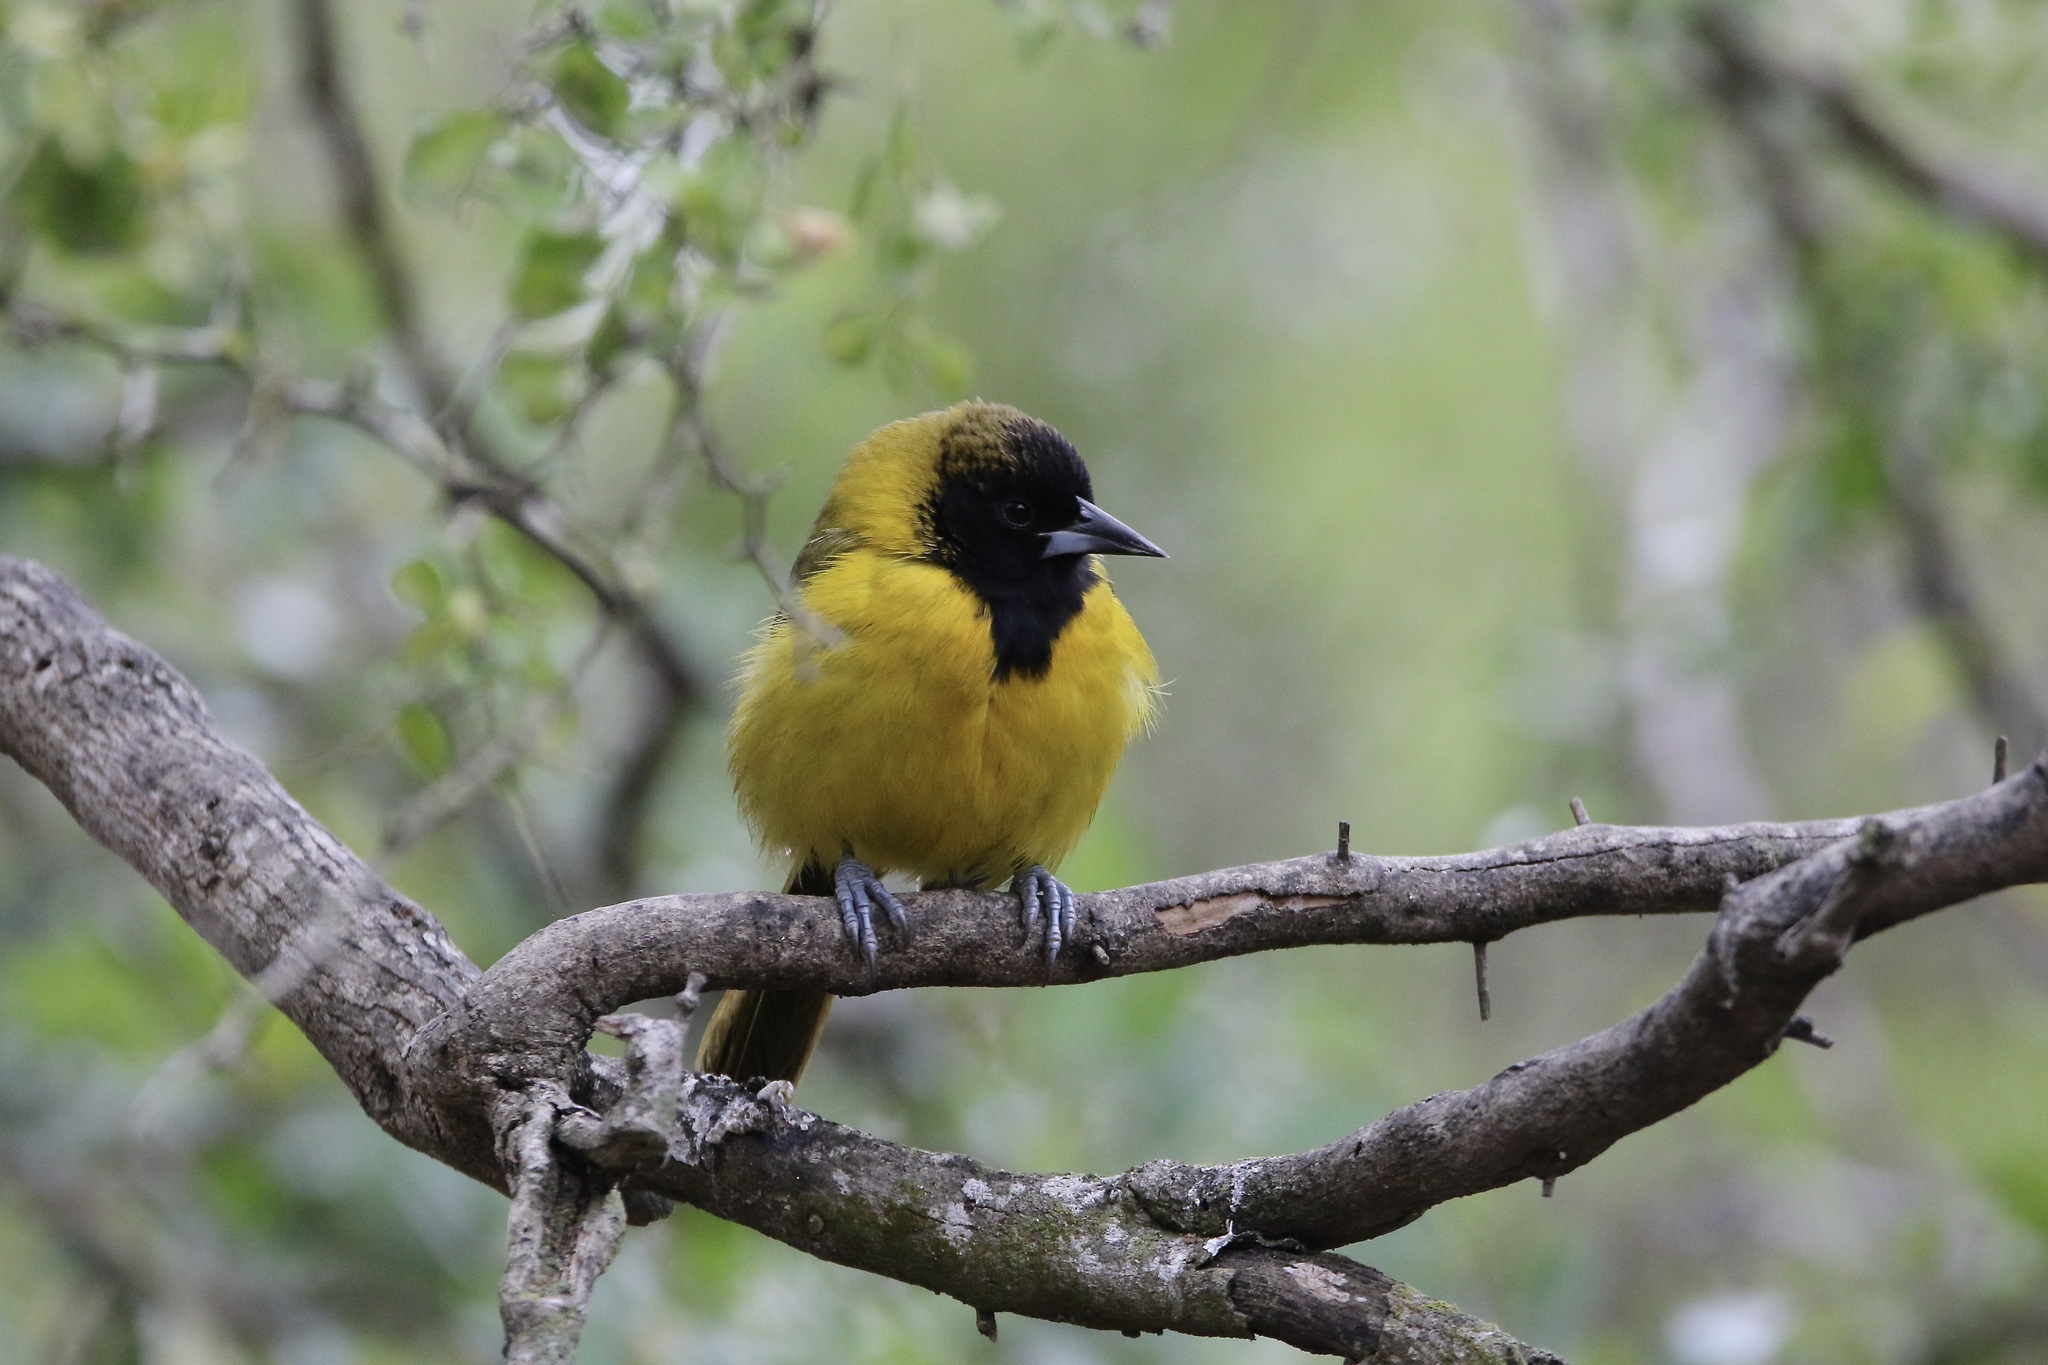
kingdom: Animalia
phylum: Chordata
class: Aves
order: Passeriformes
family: Icteridae
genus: Icterus
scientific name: Icterus graduacauda
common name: Audubon's oriole
